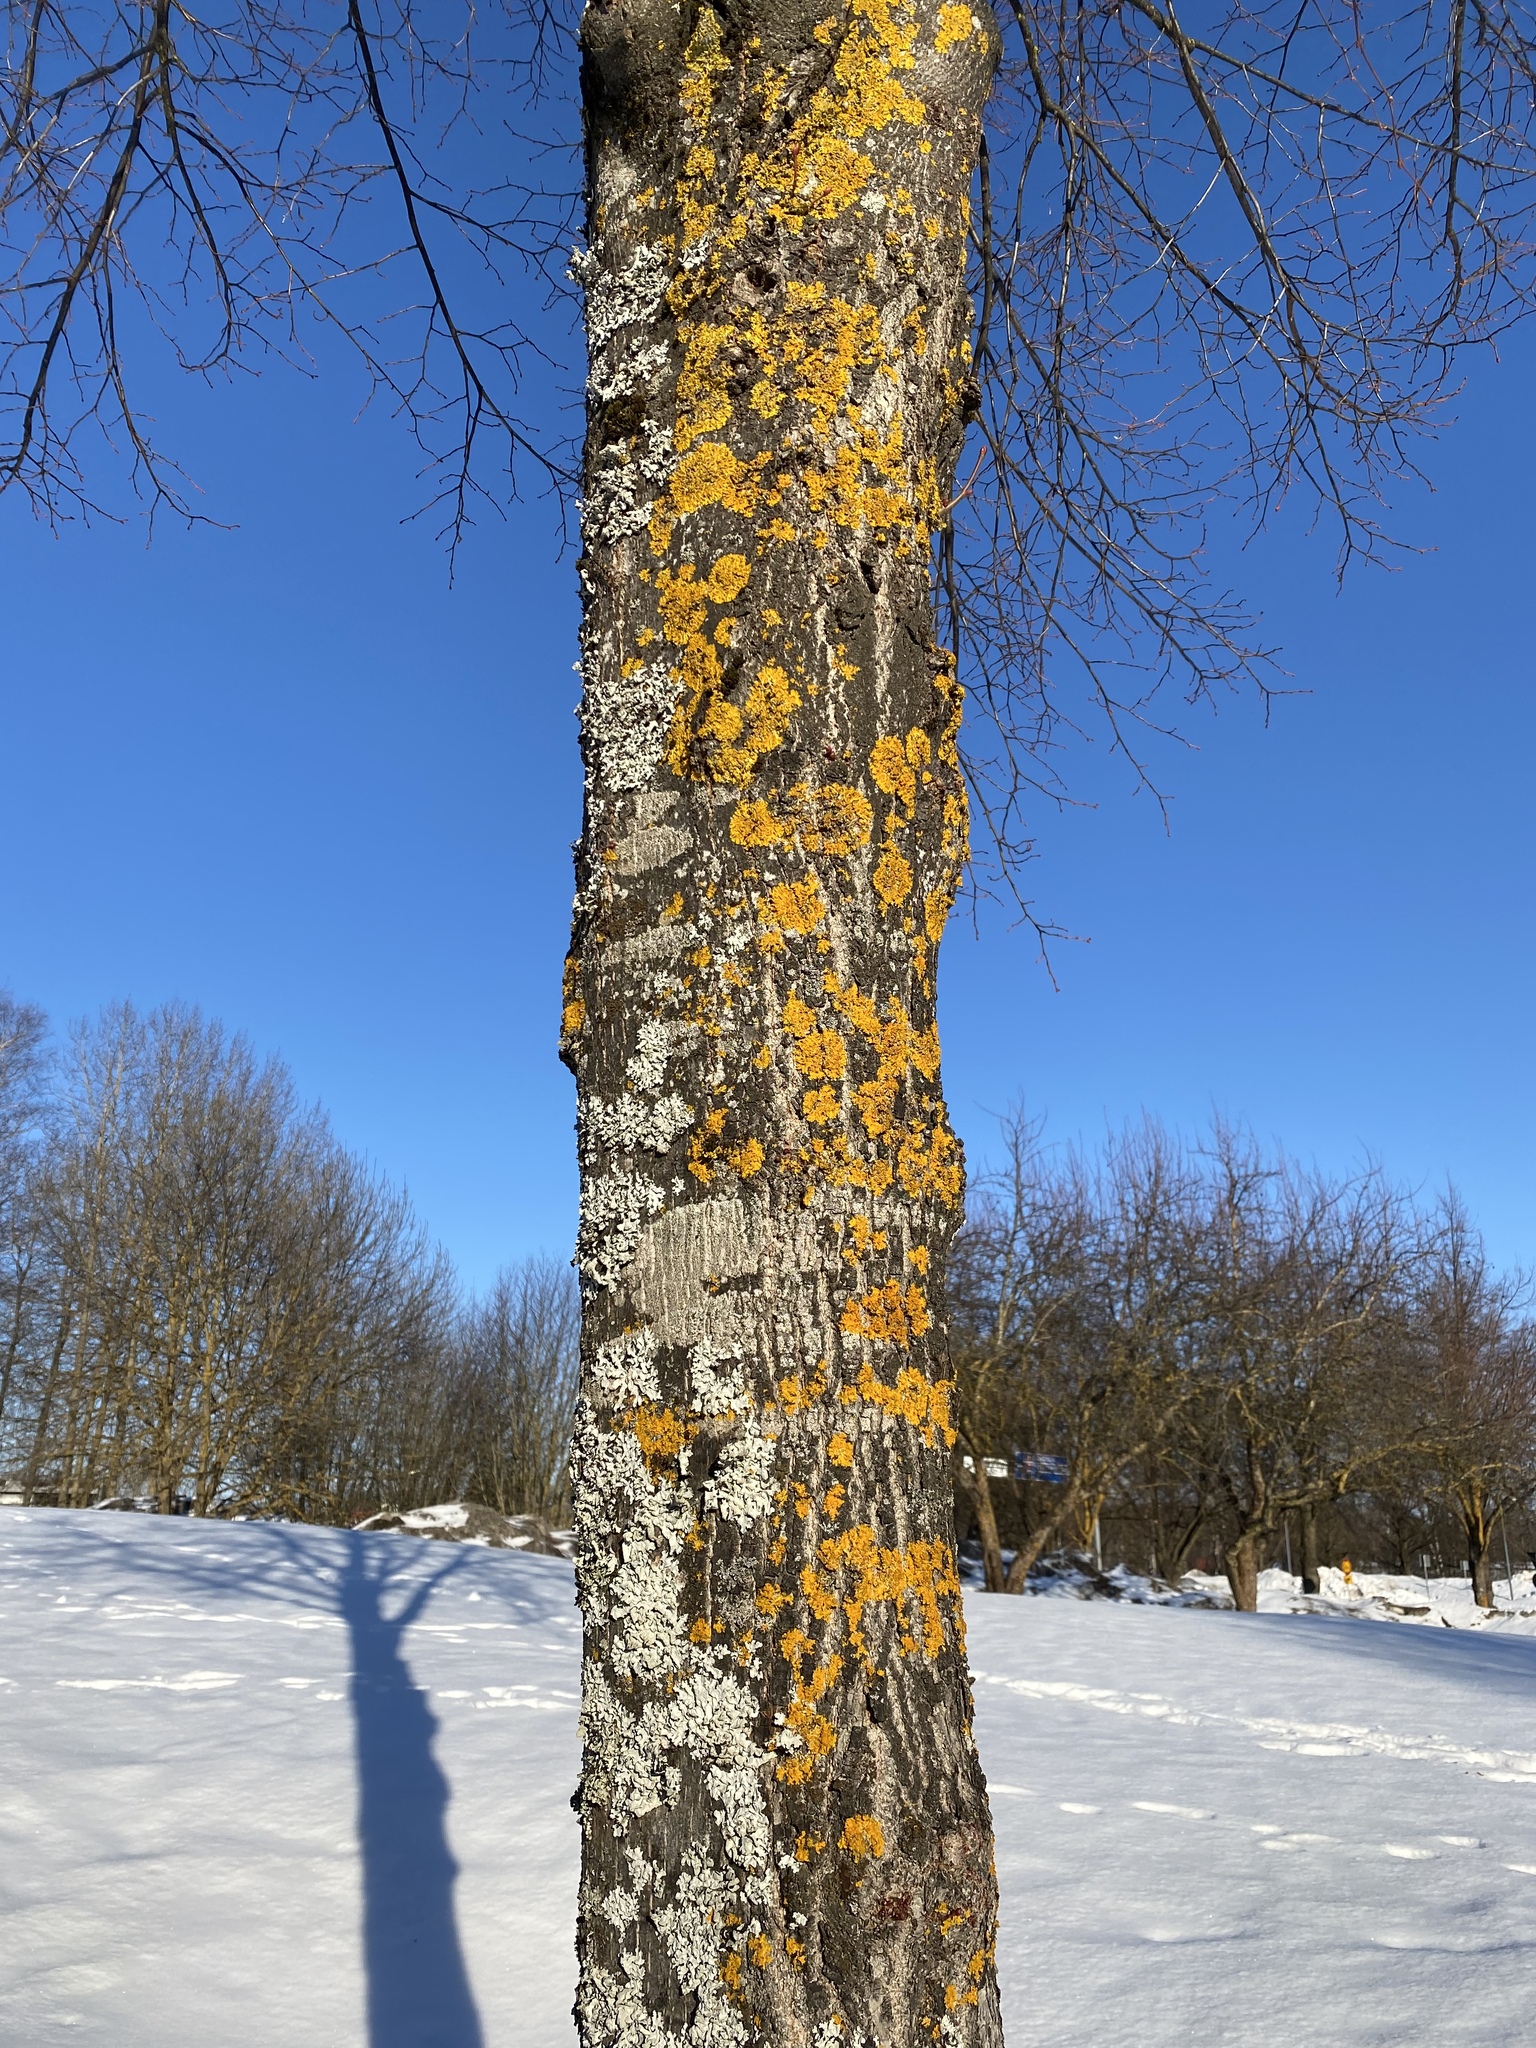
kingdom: Fungi
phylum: Ascomycota
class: Lecanoromycetes
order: Teloschistales
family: Teloschistaceae
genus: Xanthoria
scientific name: Xanthoria parietina
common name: Common orange lichen
